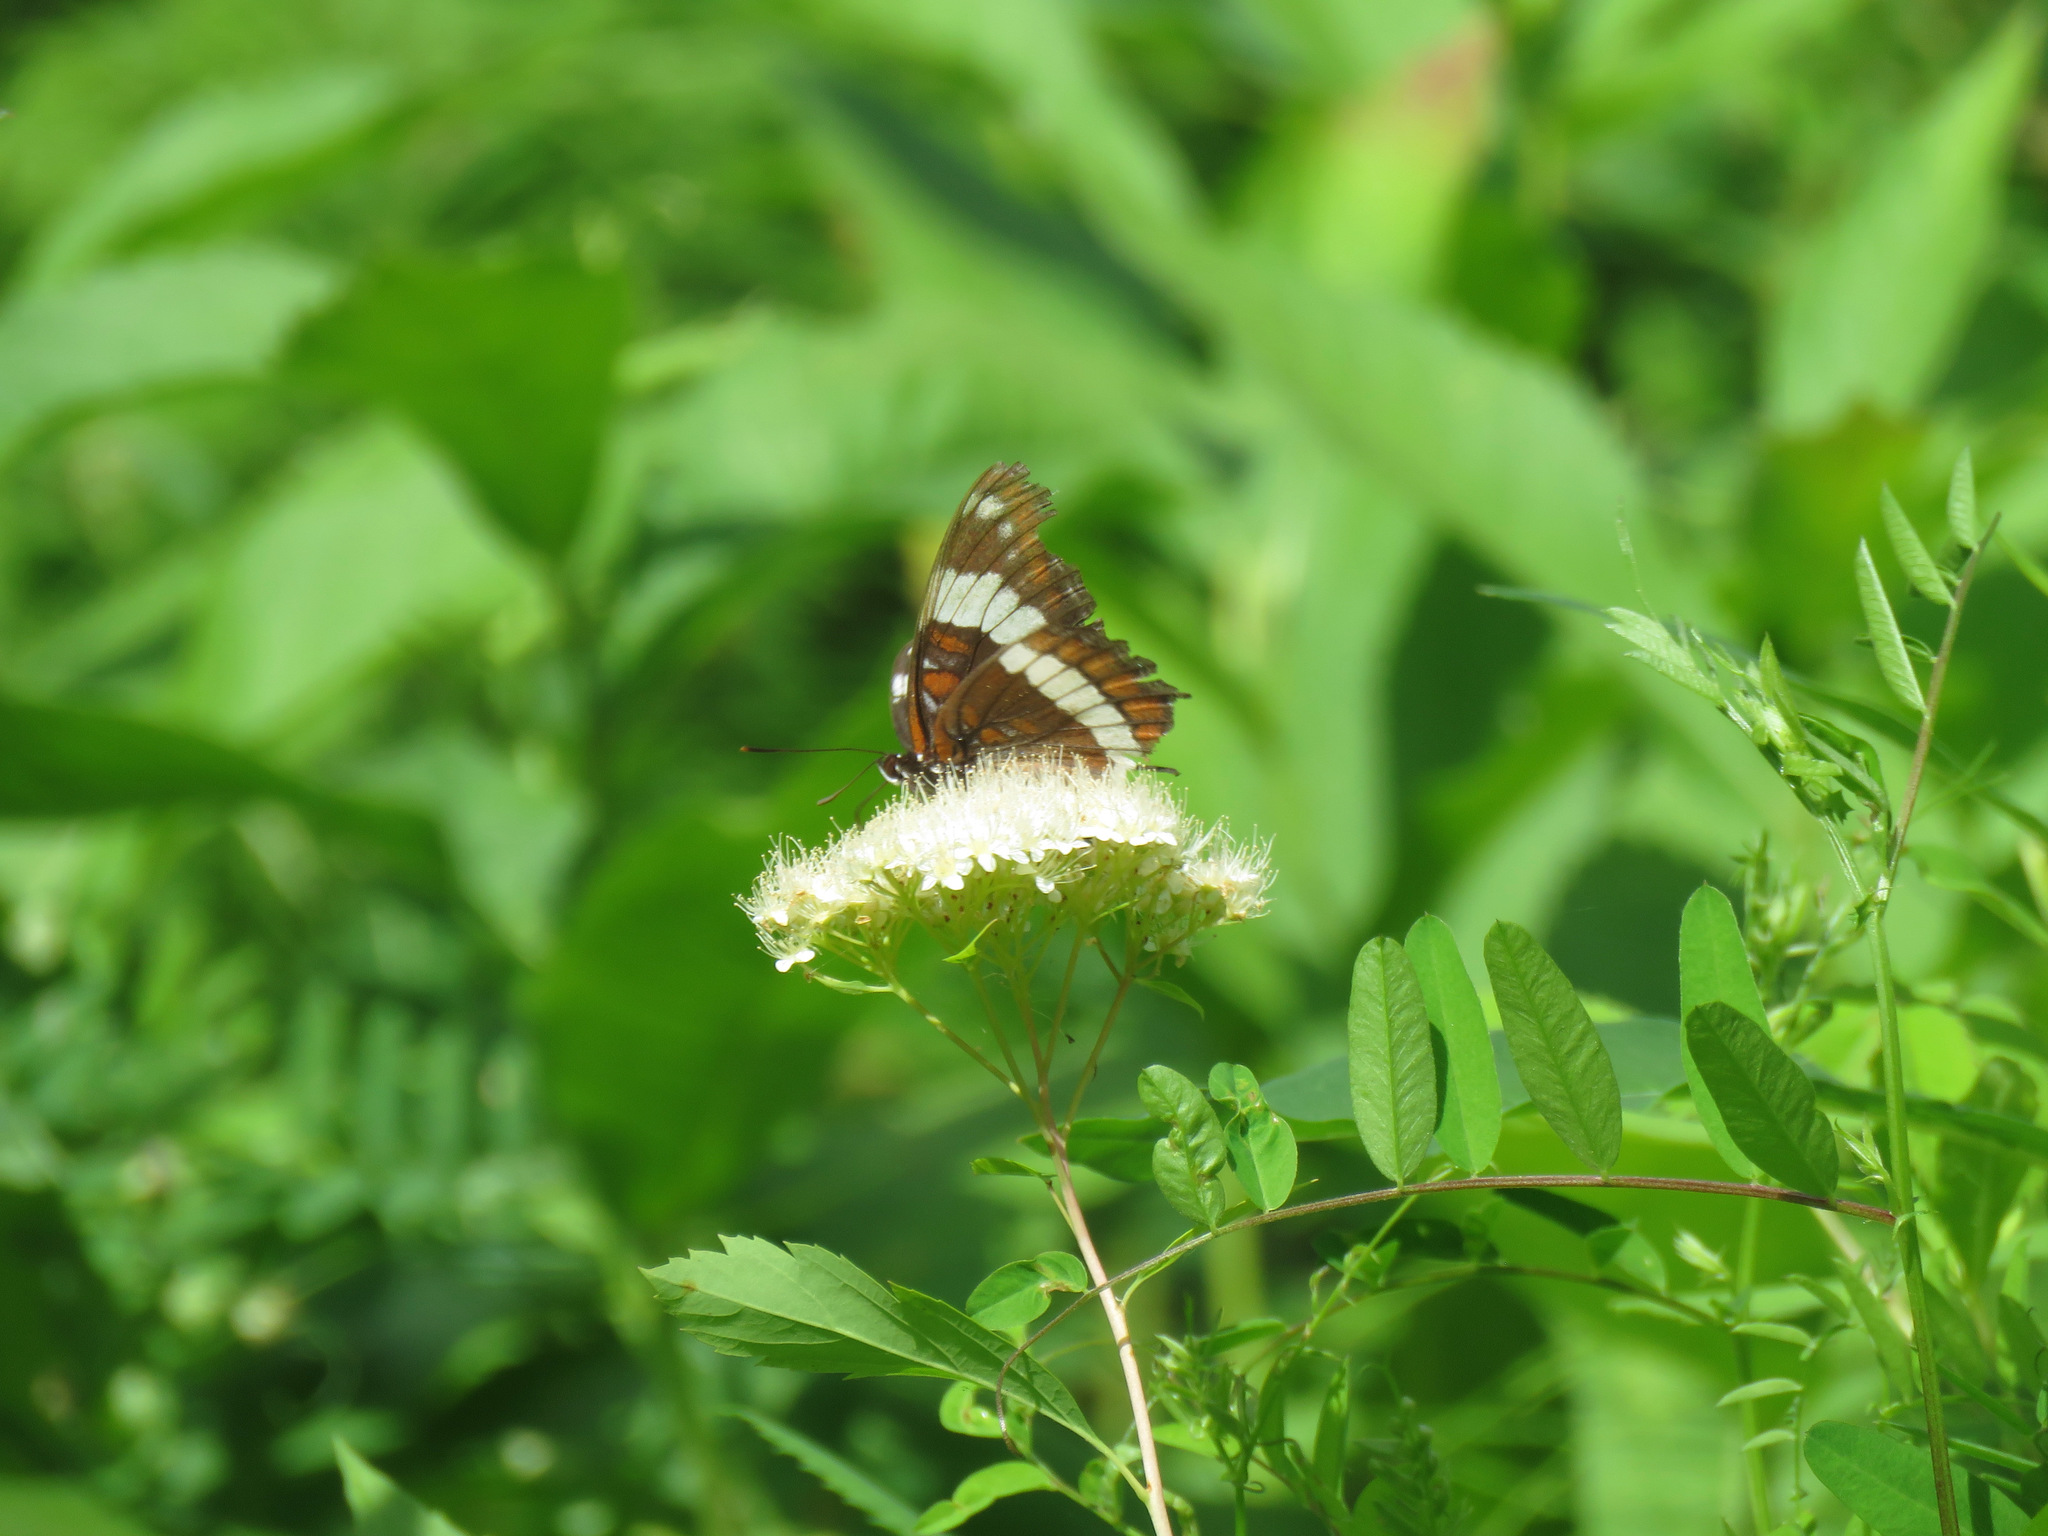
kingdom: Animalia
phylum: Arthropoda
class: Insecta
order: Lepidoptera
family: Nymphalidae
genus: Limenitis
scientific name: Limenitis arthemis
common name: Red-spotted admiral
